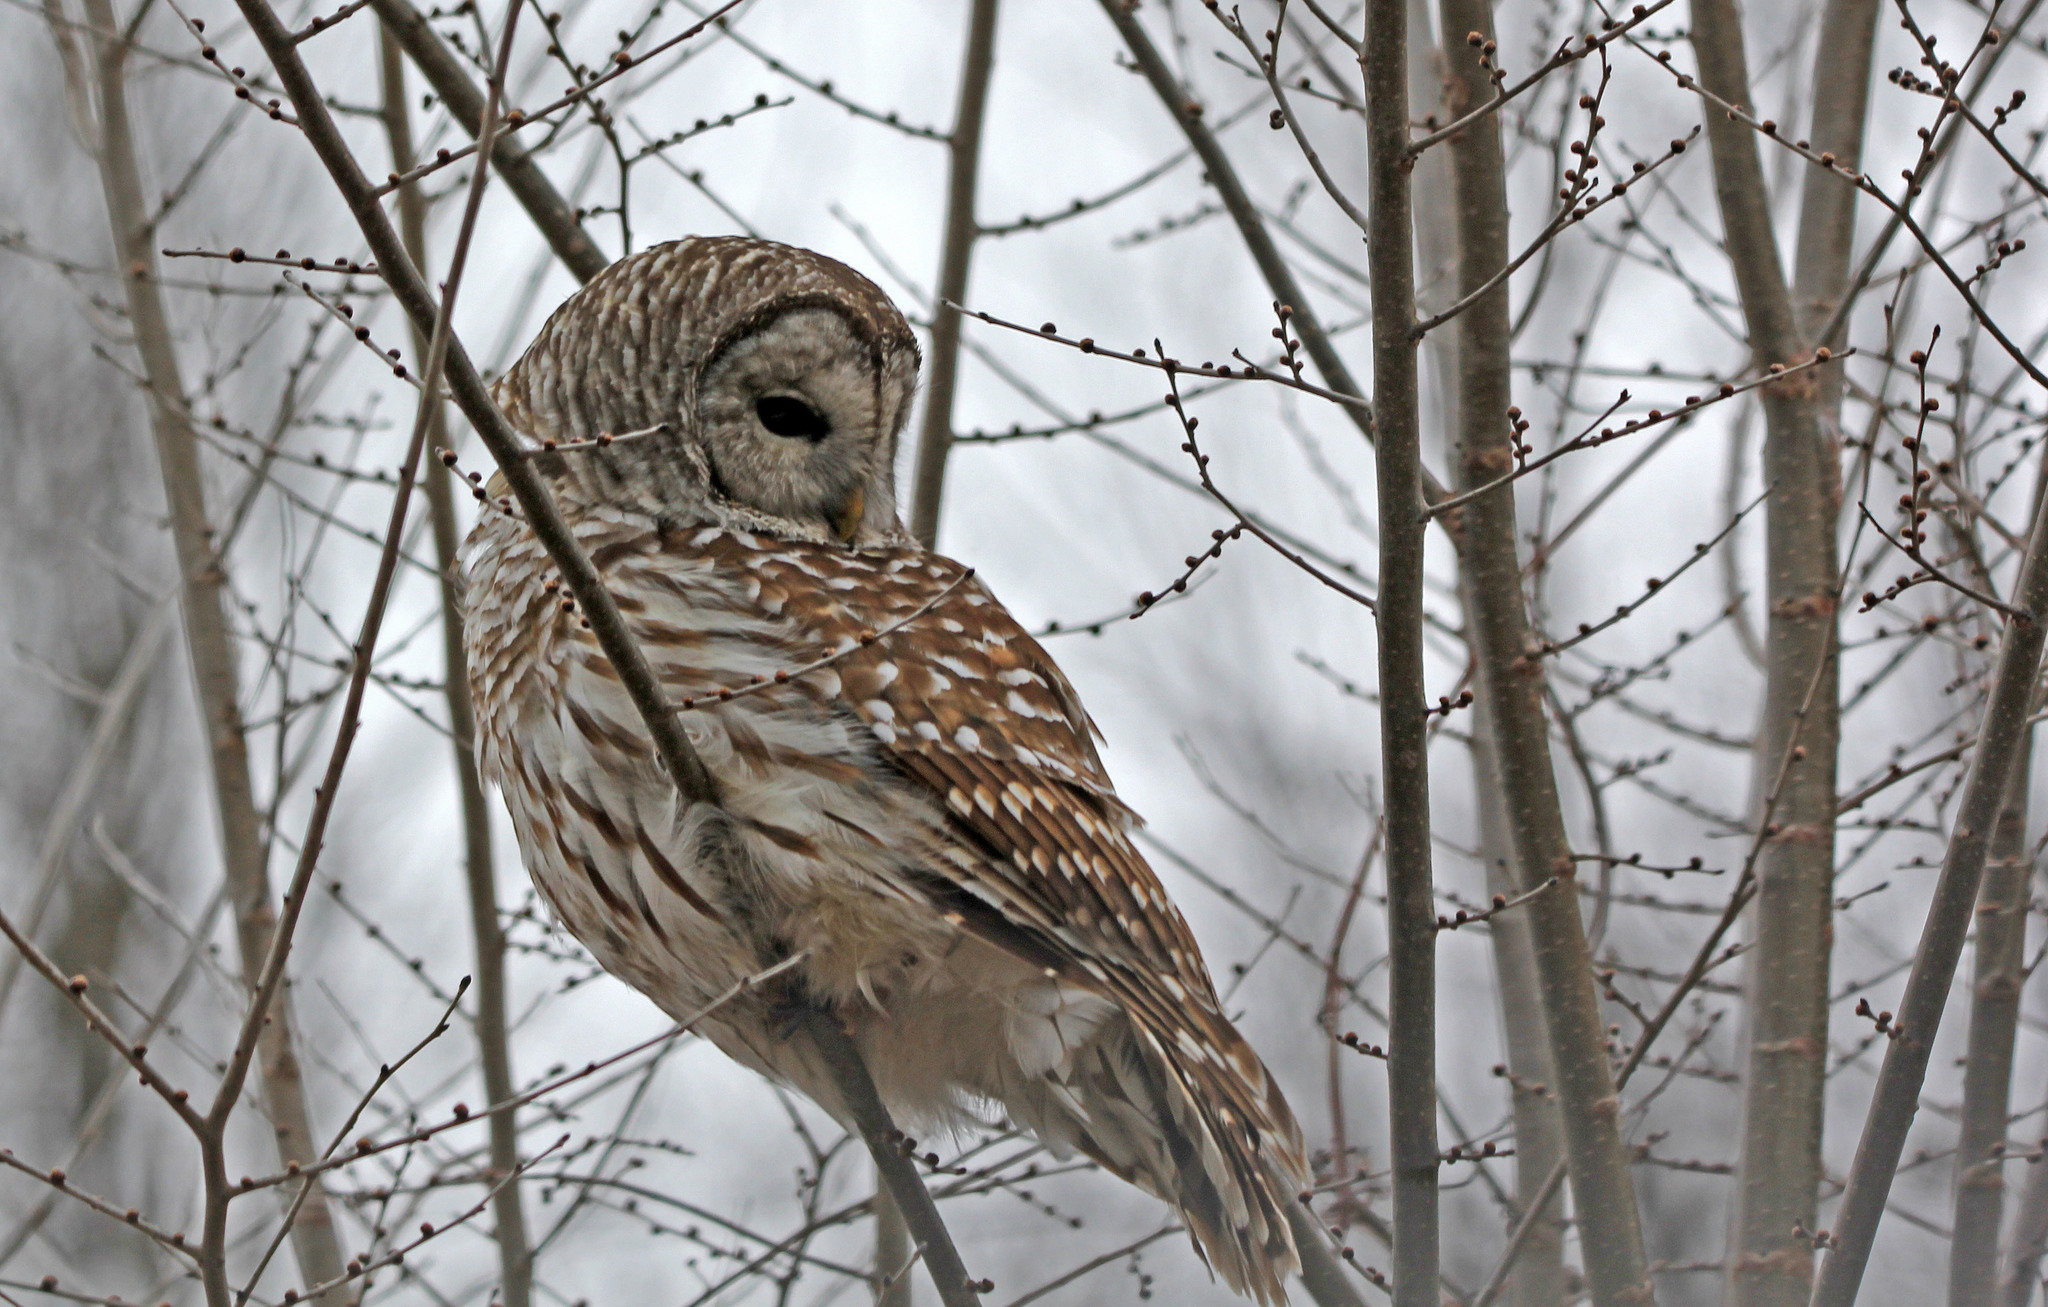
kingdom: Animalia
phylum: Chordata
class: Aves
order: Strigiformes
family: Strigidae
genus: Strix
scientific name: Strix varia
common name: Barred owl
